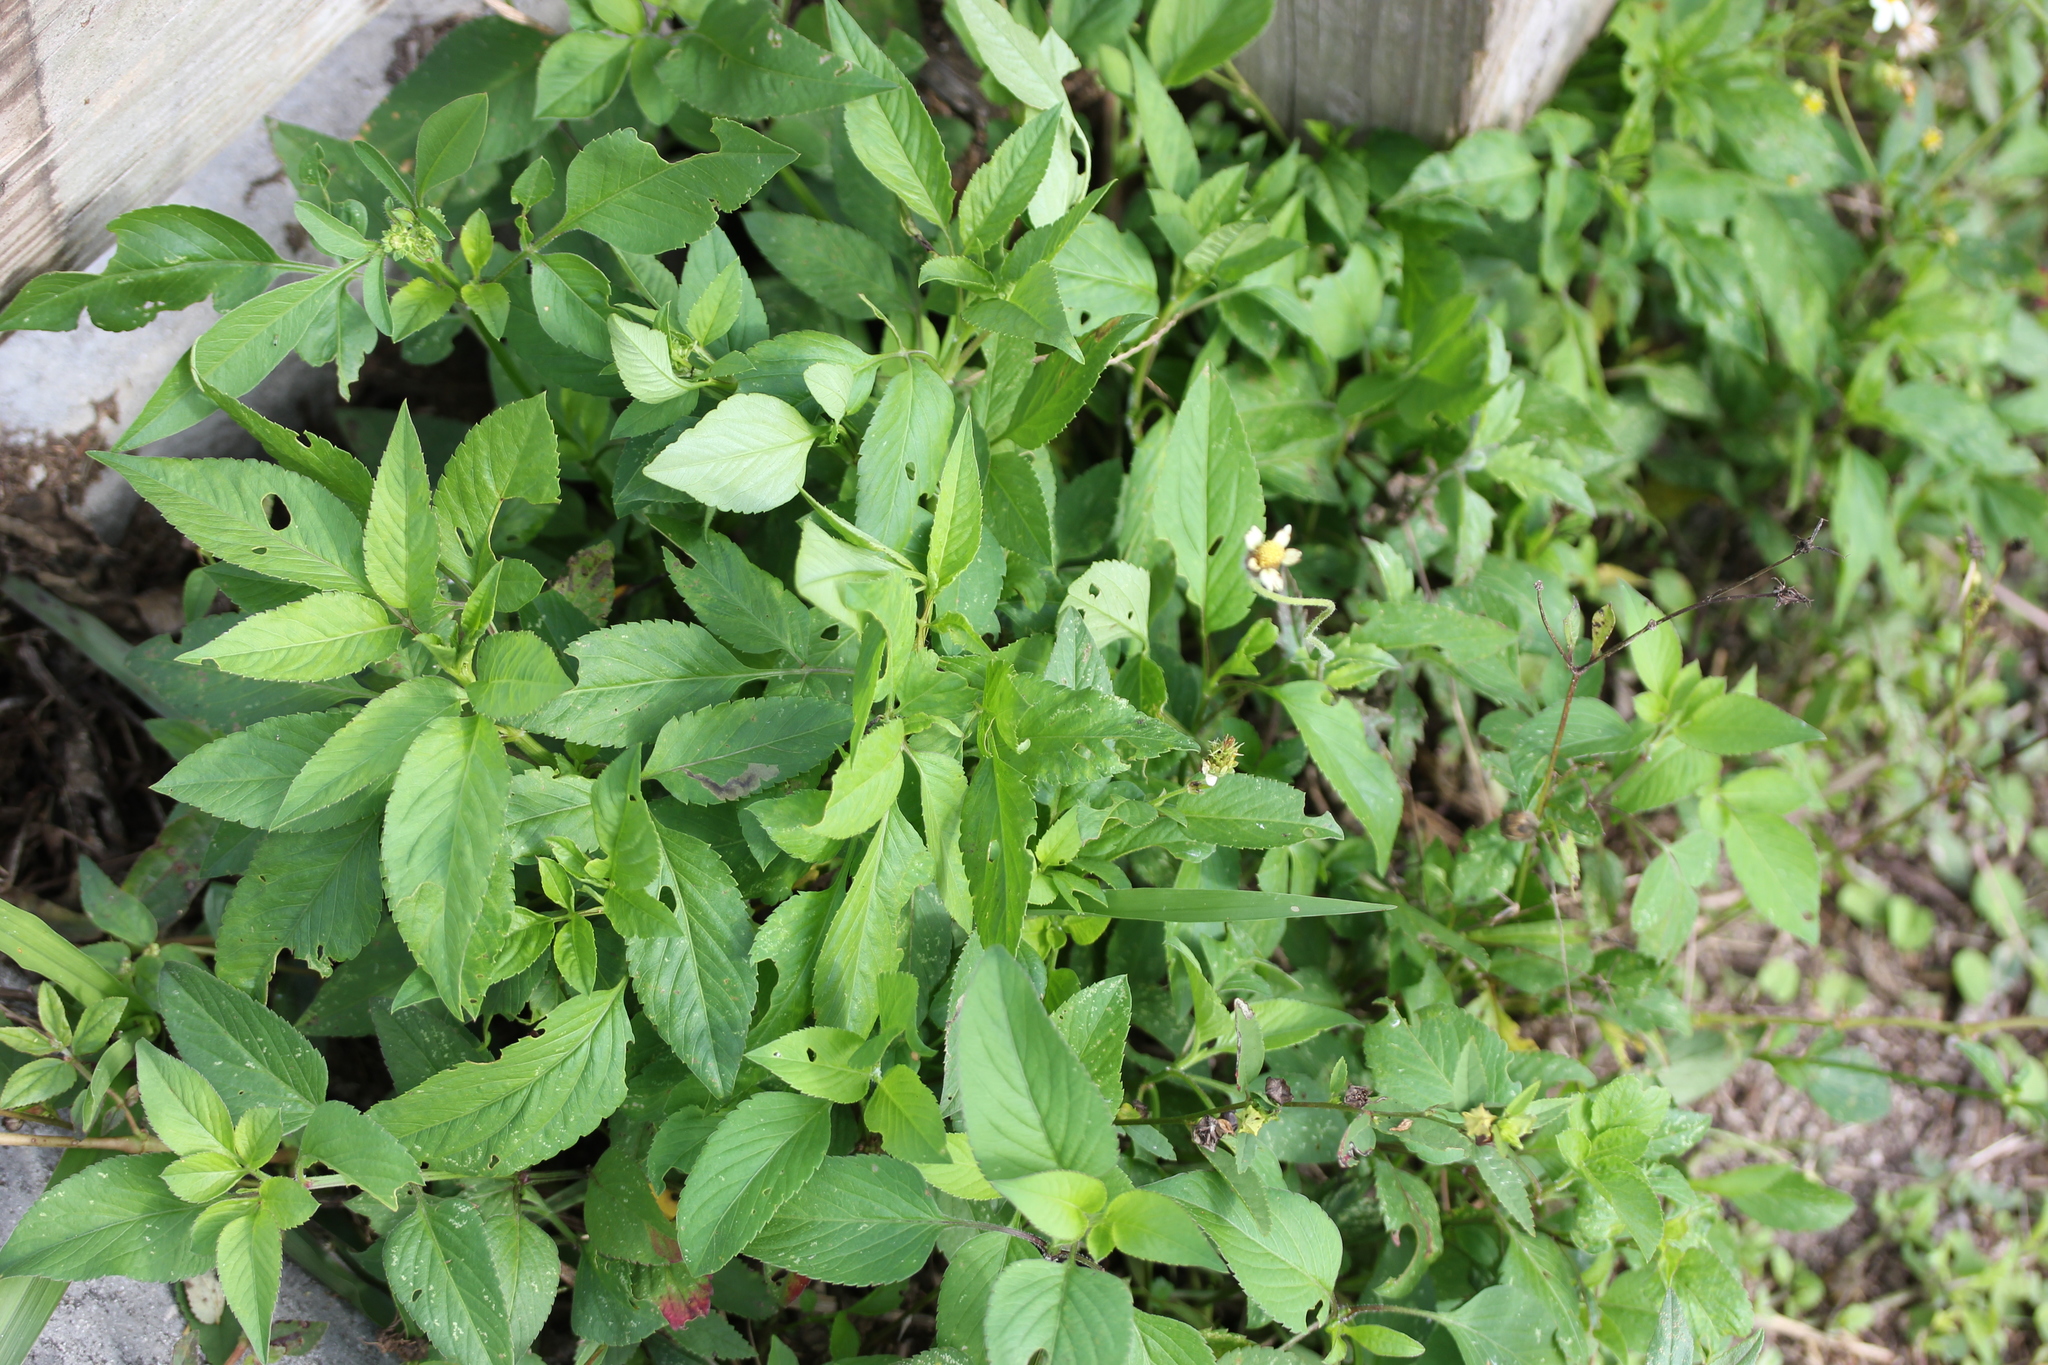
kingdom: Plantae
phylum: Tracheophyta
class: Magnoliopsida
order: Asterales
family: Asteraceae
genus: Bidens
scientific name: Bidens alba
